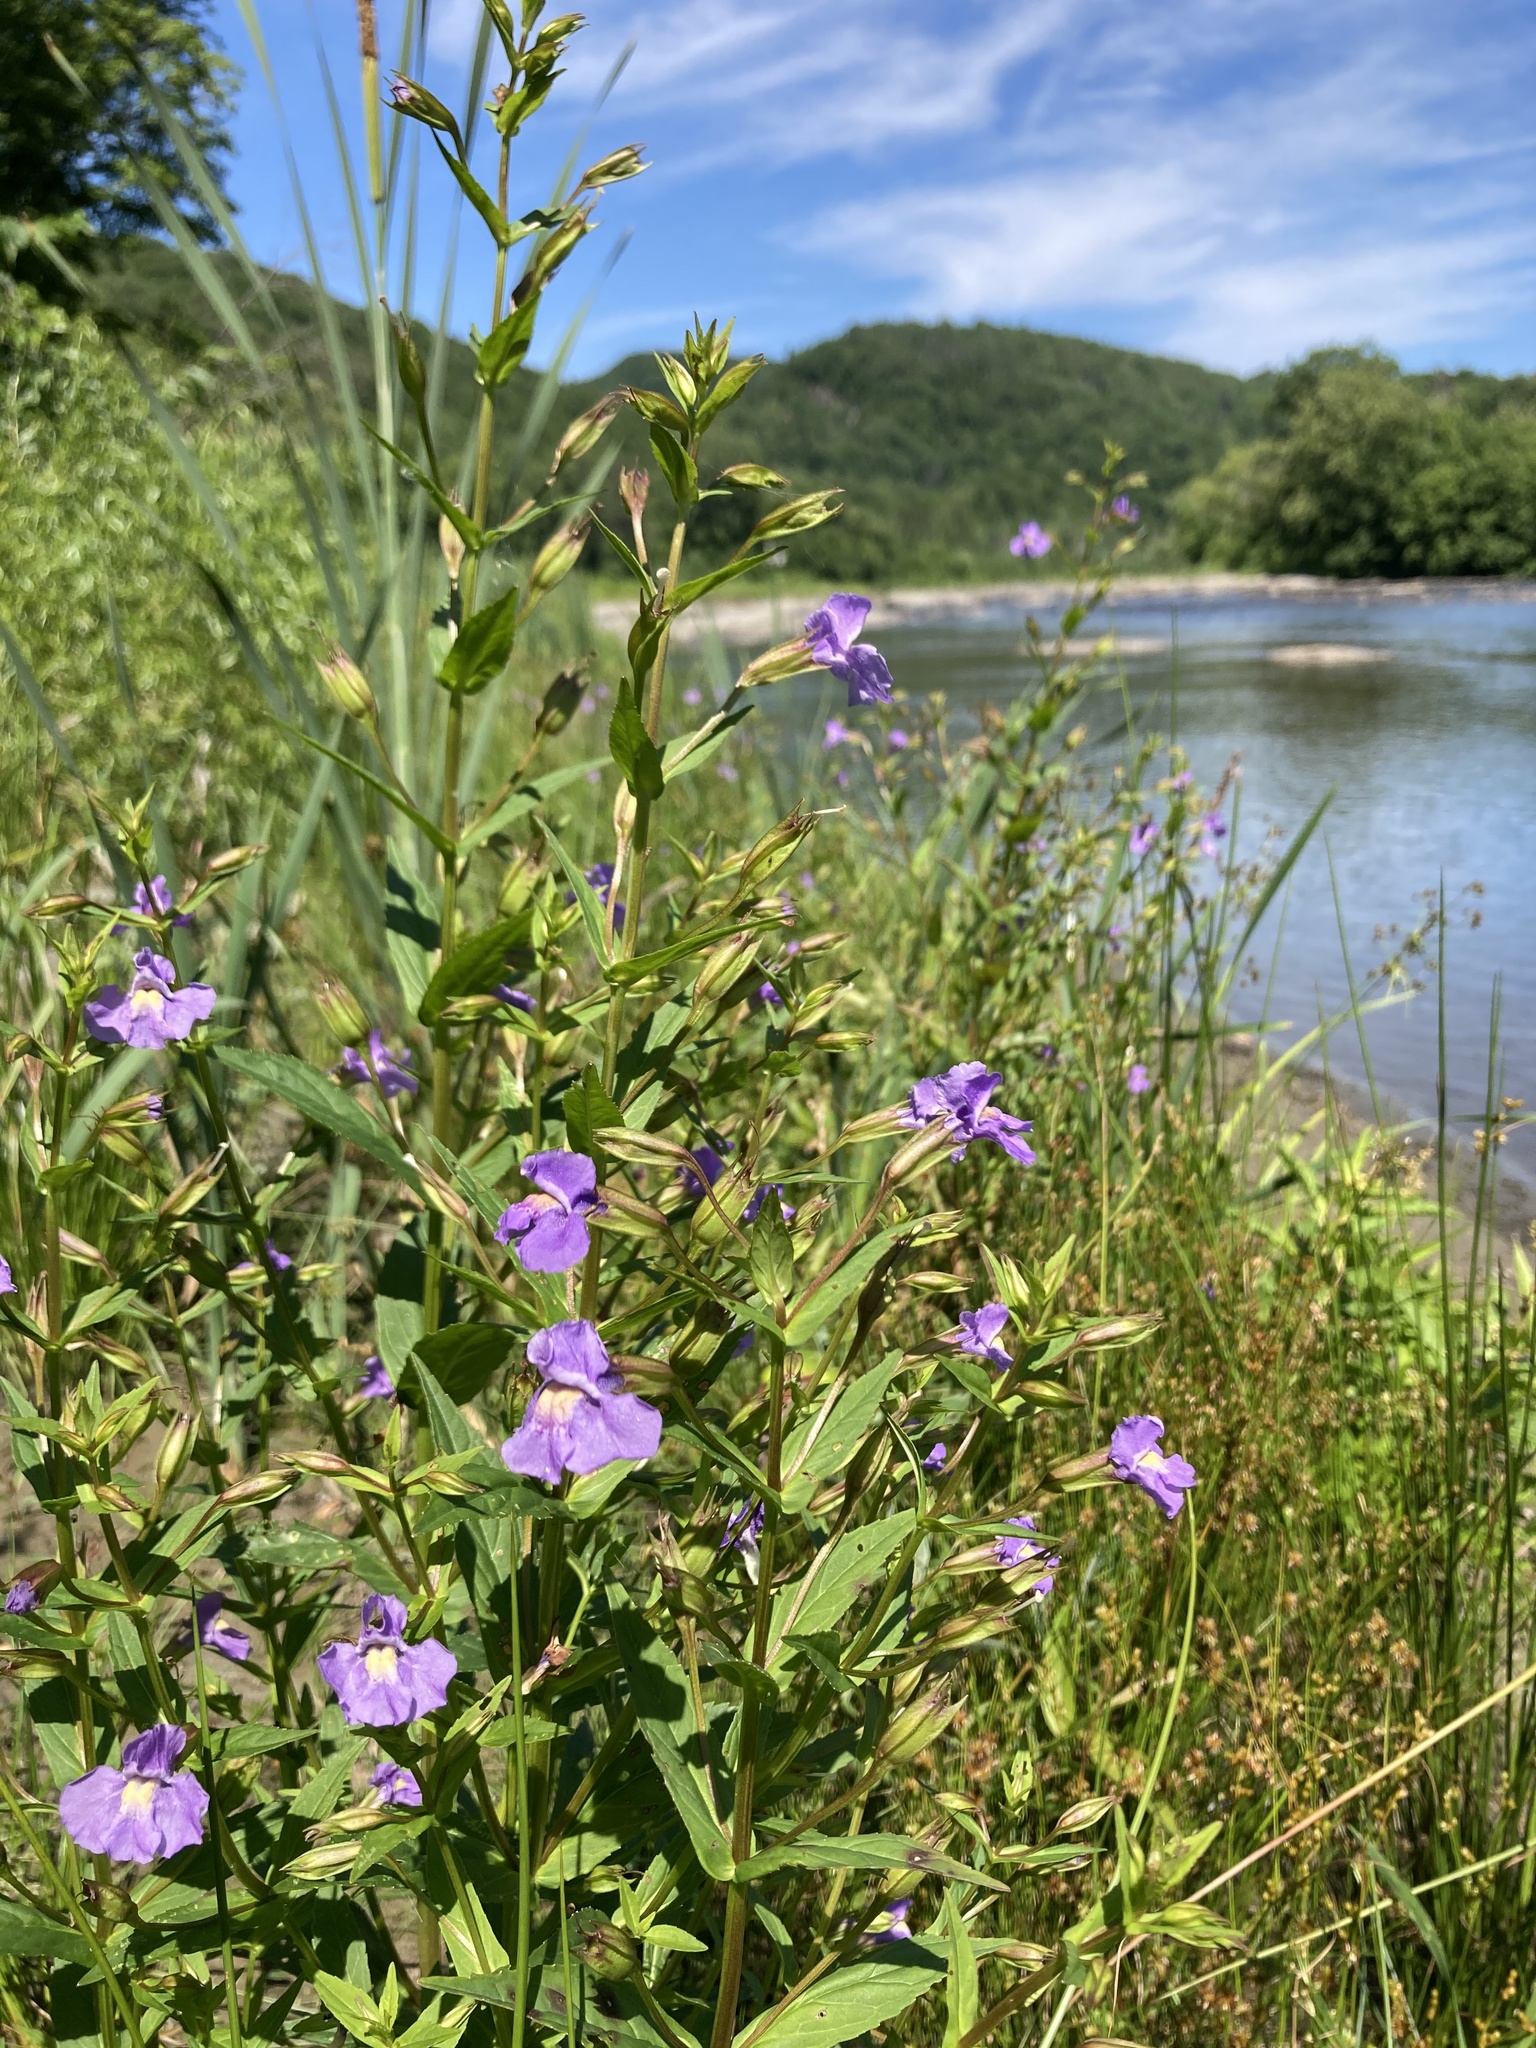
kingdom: Plantae
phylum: Tracheophyta
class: Magnoliopsida
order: Lamiales
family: Phrymaceae
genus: Mimulus
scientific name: Mimulus ringens
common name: Allegheny monkeyflower
